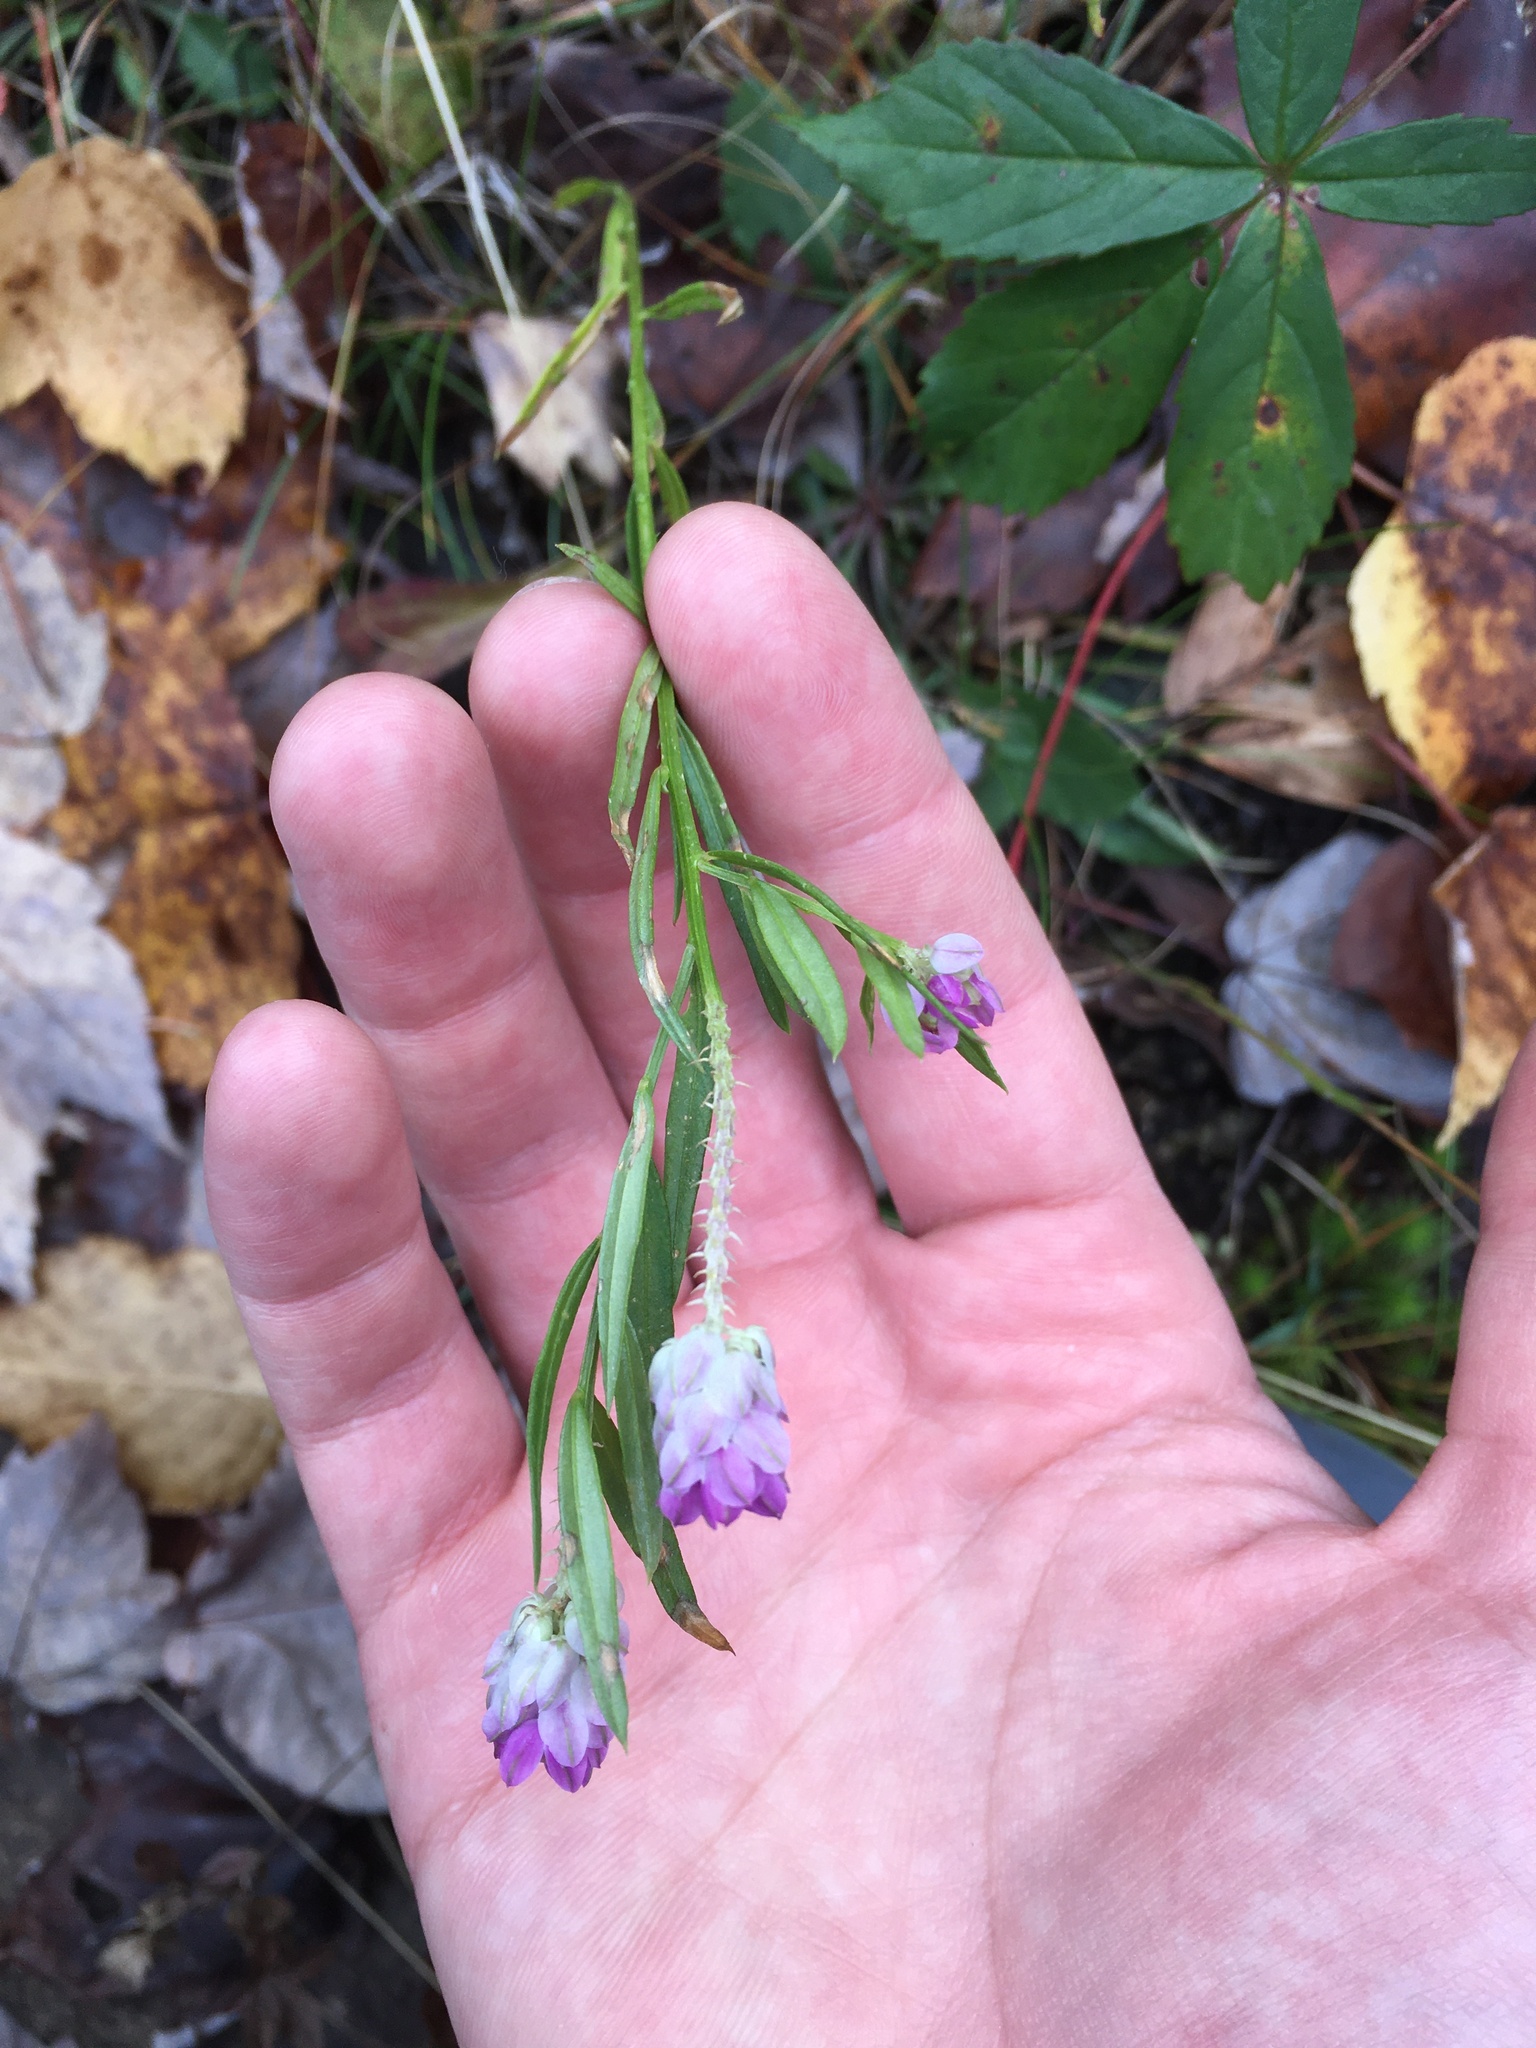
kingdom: Plantae
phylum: Tracheophyta
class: Magnoliopsida
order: Fabales
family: Polygalaceae
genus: Polygala
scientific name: Polygala sanguinea
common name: Blood milkwort
